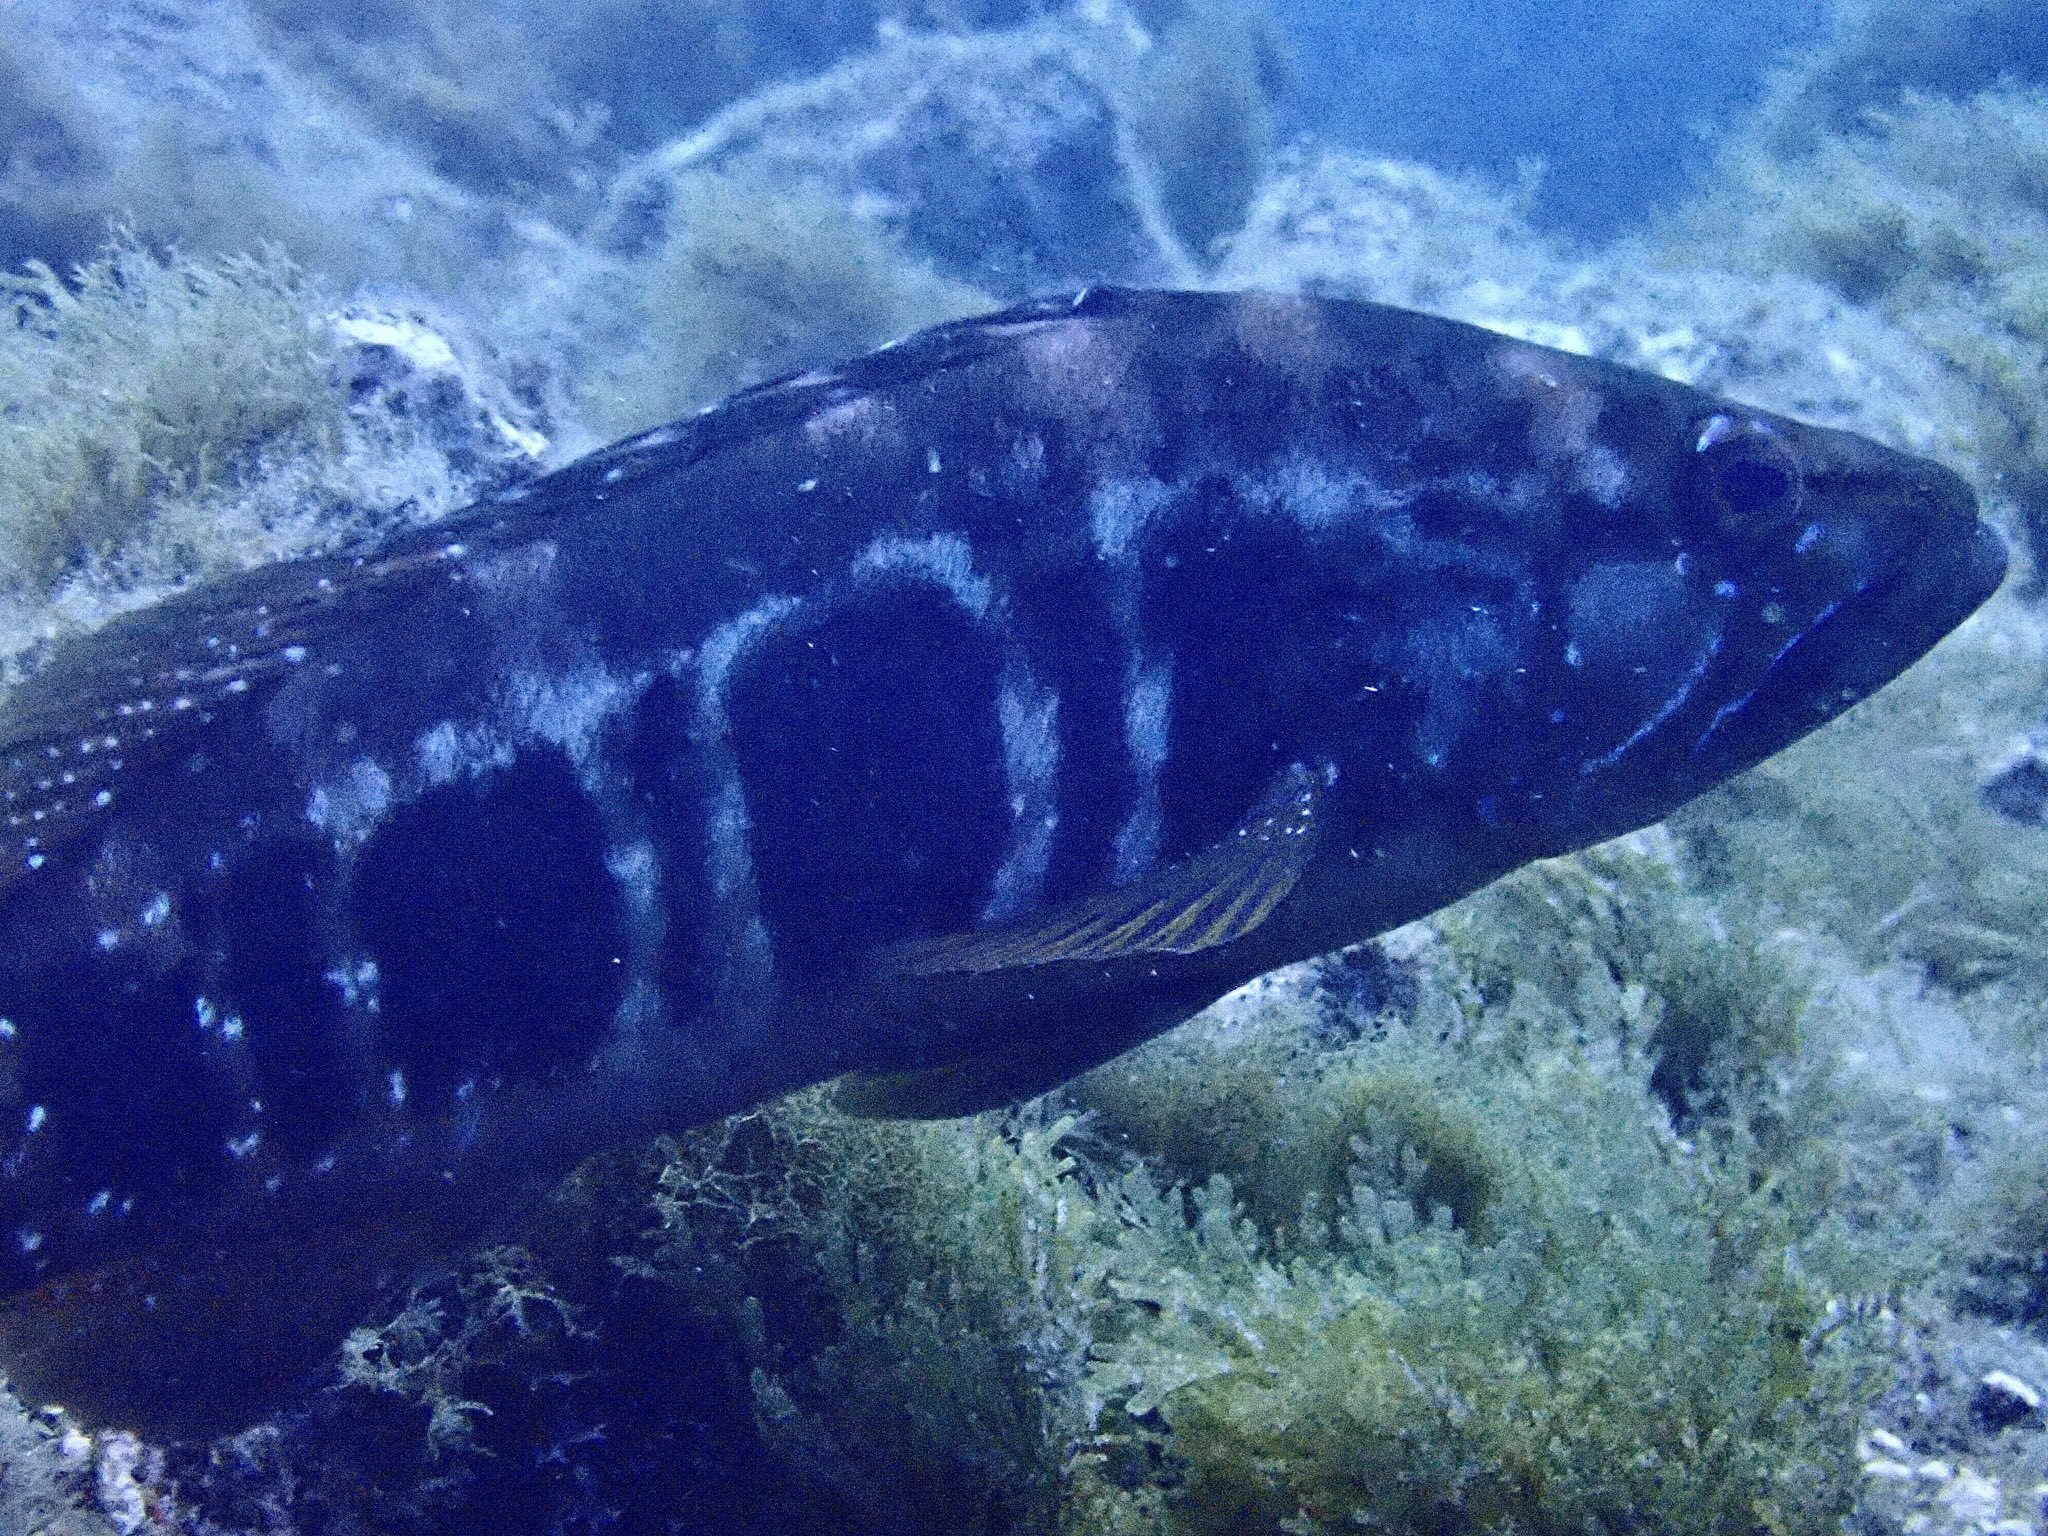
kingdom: Animalia
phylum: Chordata
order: Perciformes
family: Serranidae
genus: Serranus
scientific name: Serranus atricauda
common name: Blacktail comber
